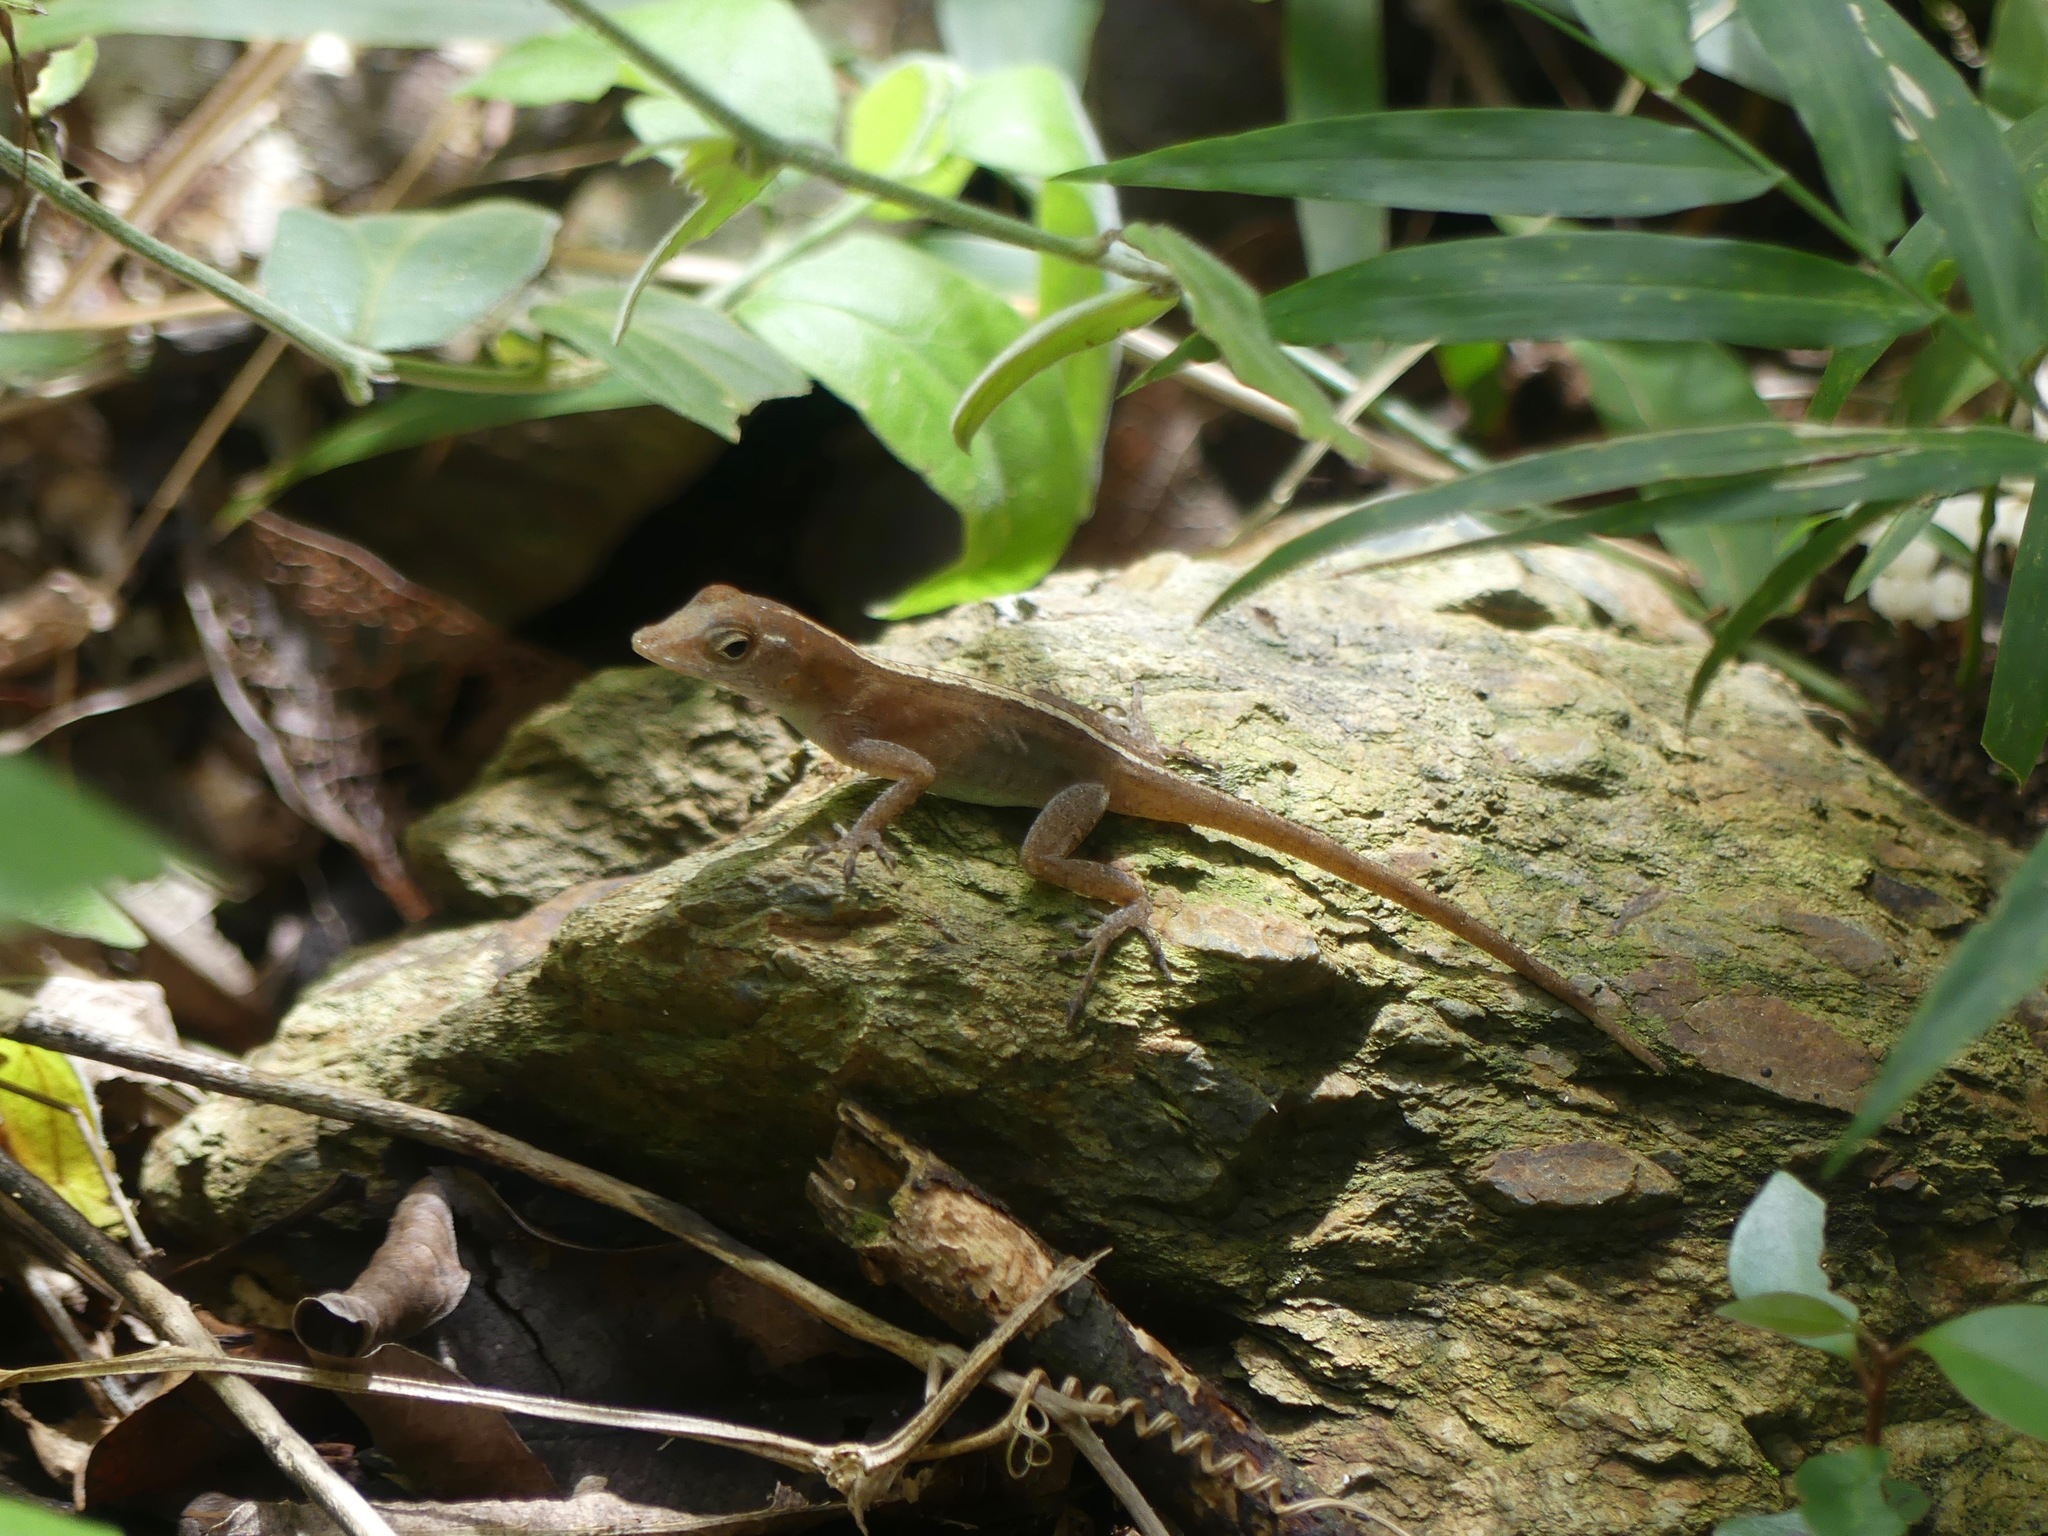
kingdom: Animalia
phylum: Chordata
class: Squamata
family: Dactyloidae
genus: Anolis
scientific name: Anolis cristatellus
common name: Crested anole
